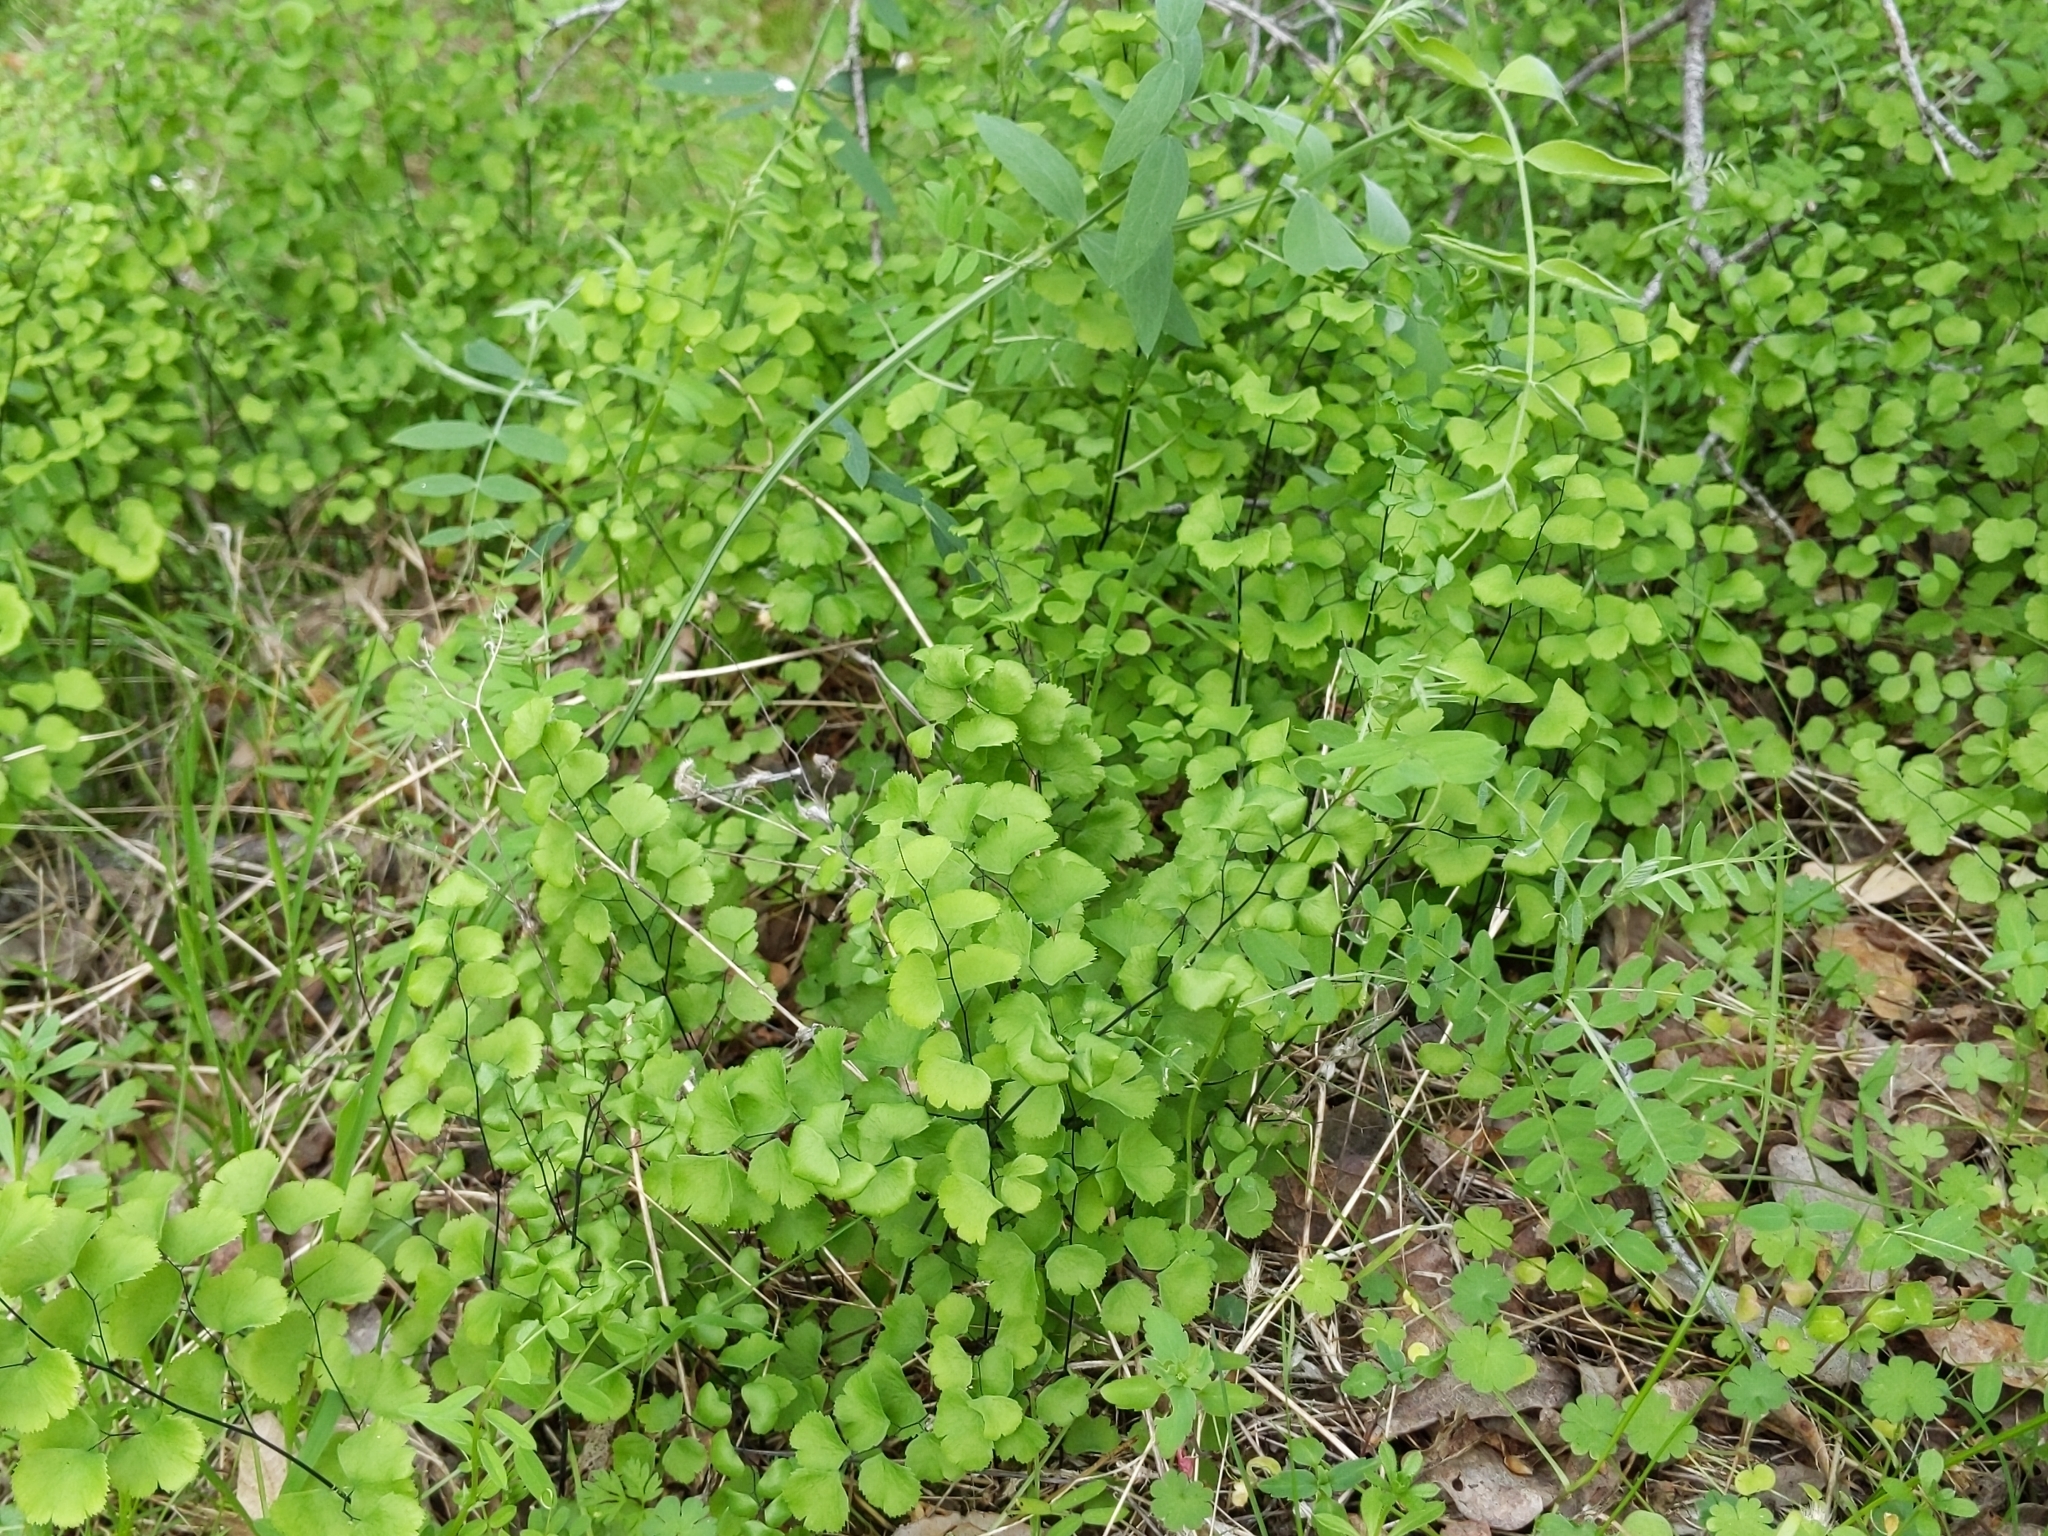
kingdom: Plantae
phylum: Tracheophyta
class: Polypodiopsida
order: Polypodiales
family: Pteridaceae
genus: Adiantum
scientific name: Adiantum jordanii
